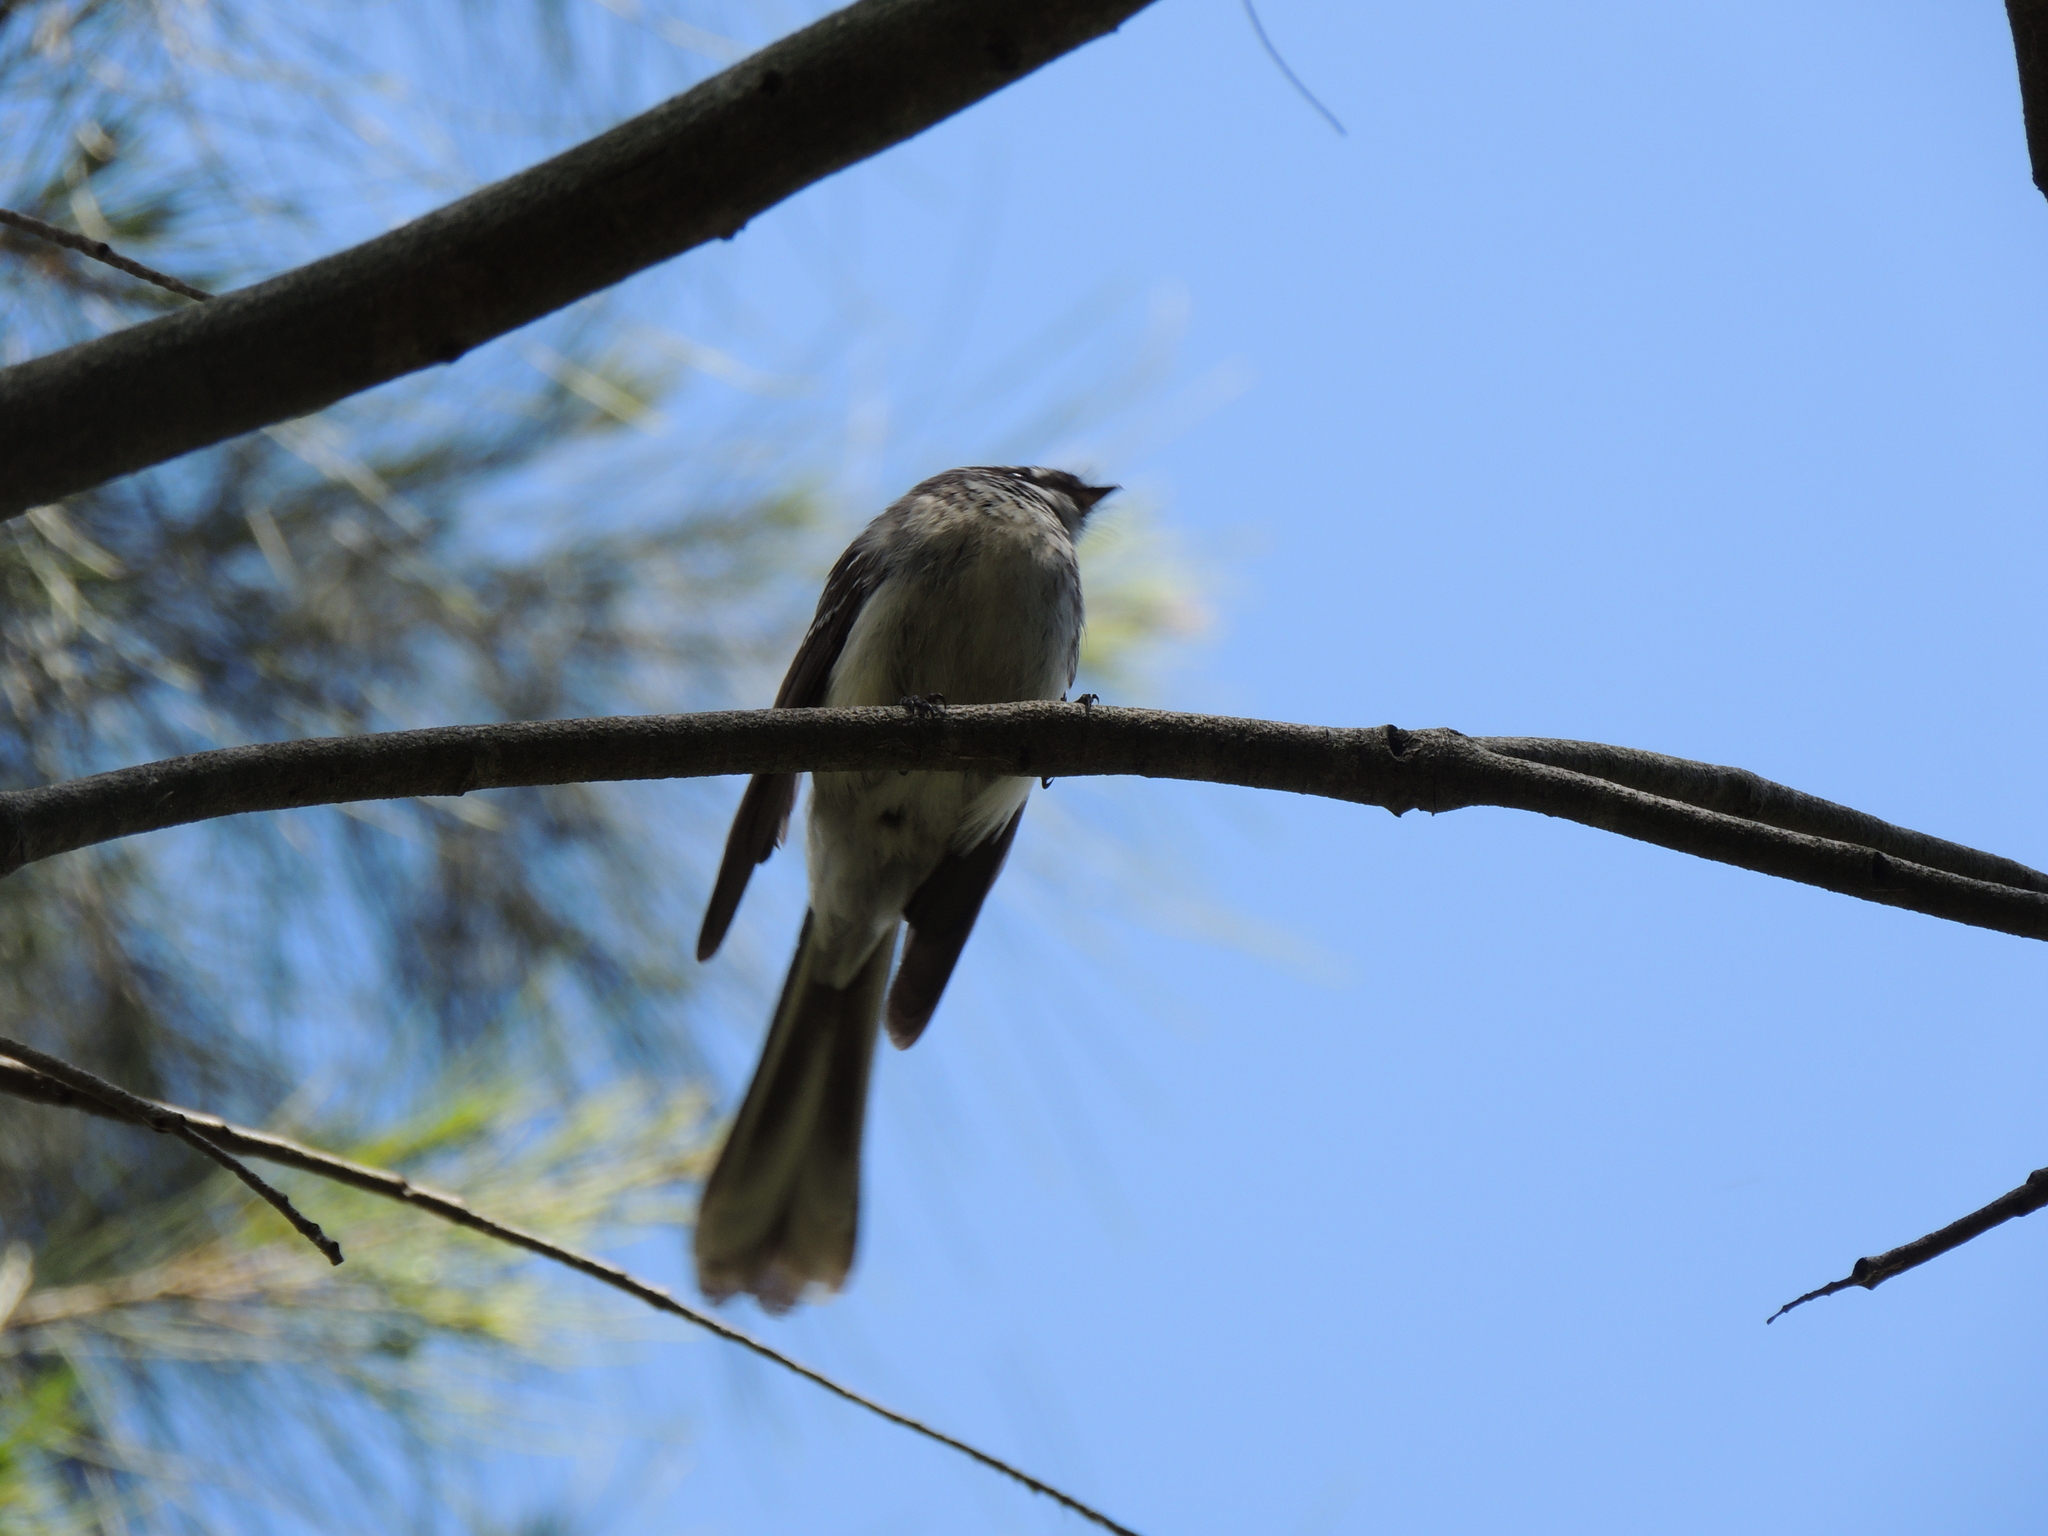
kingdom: Animalia
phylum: Chordata
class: Aves
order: Passeriformes
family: Rhipiduridae
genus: Rhipidura
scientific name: Rhipidura albiscapa
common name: Grey fantail
